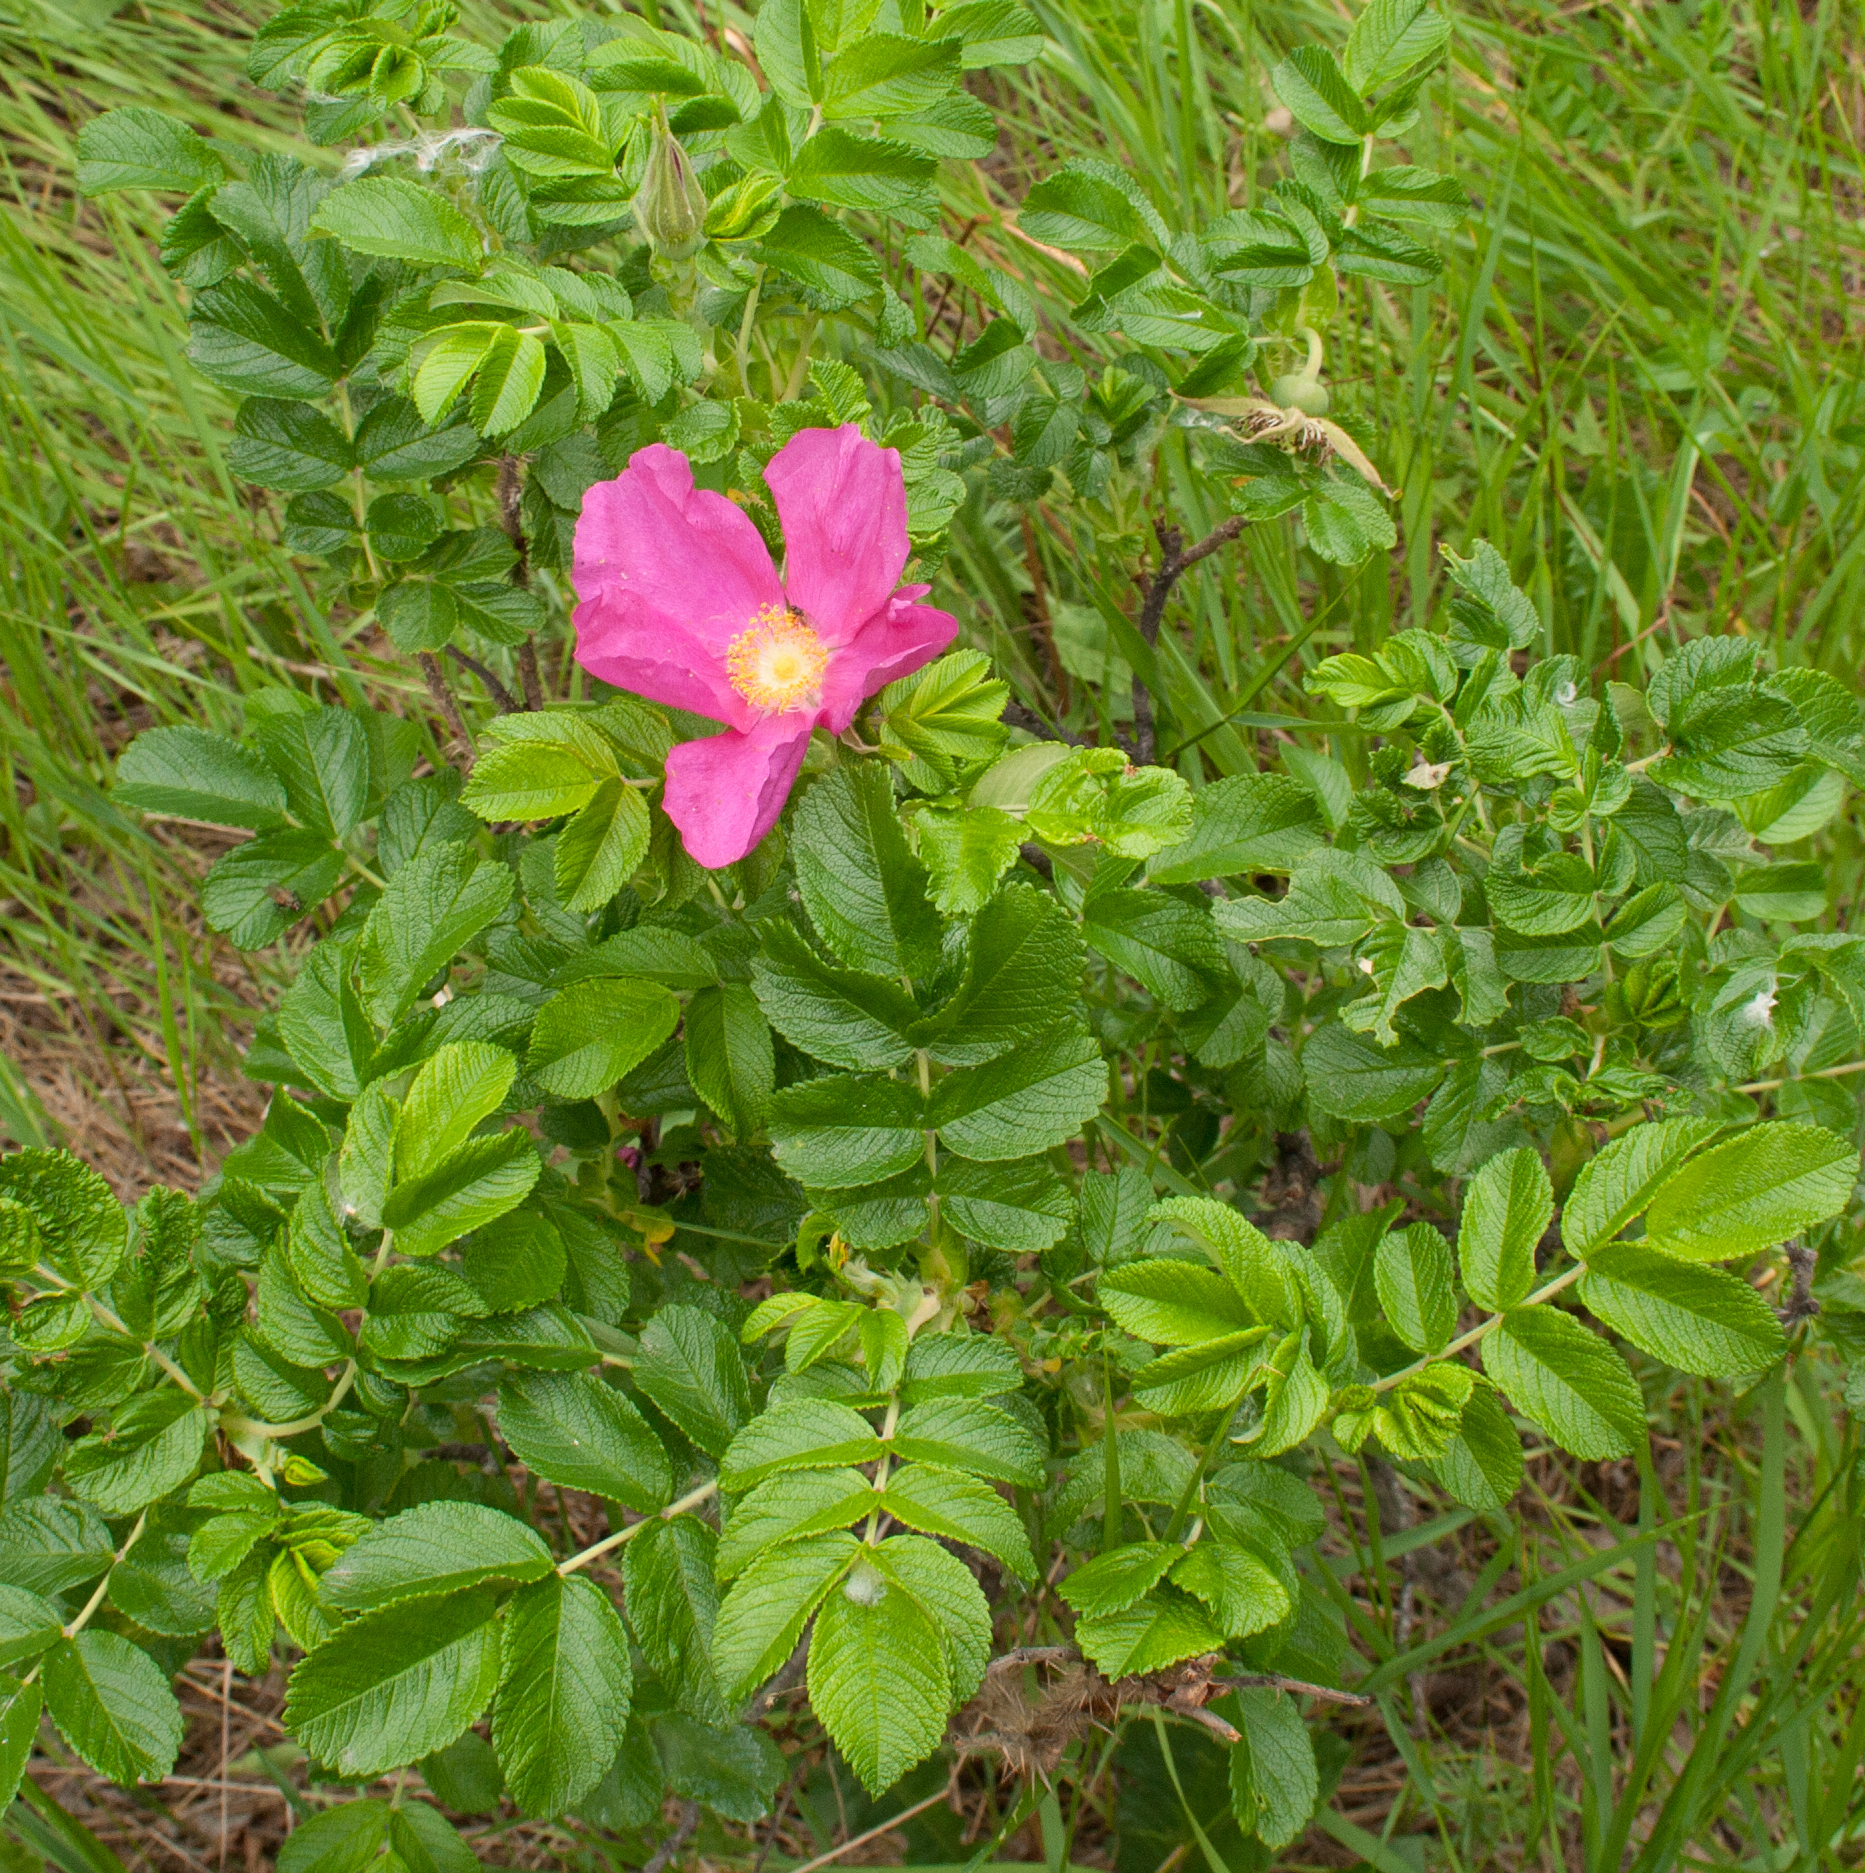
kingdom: Plantae
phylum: Tracheophyta
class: Magnoliopsida
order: Rosales
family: Rosaceae
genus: Rosa
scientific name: Rosa rugosa
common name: Japanese rose
